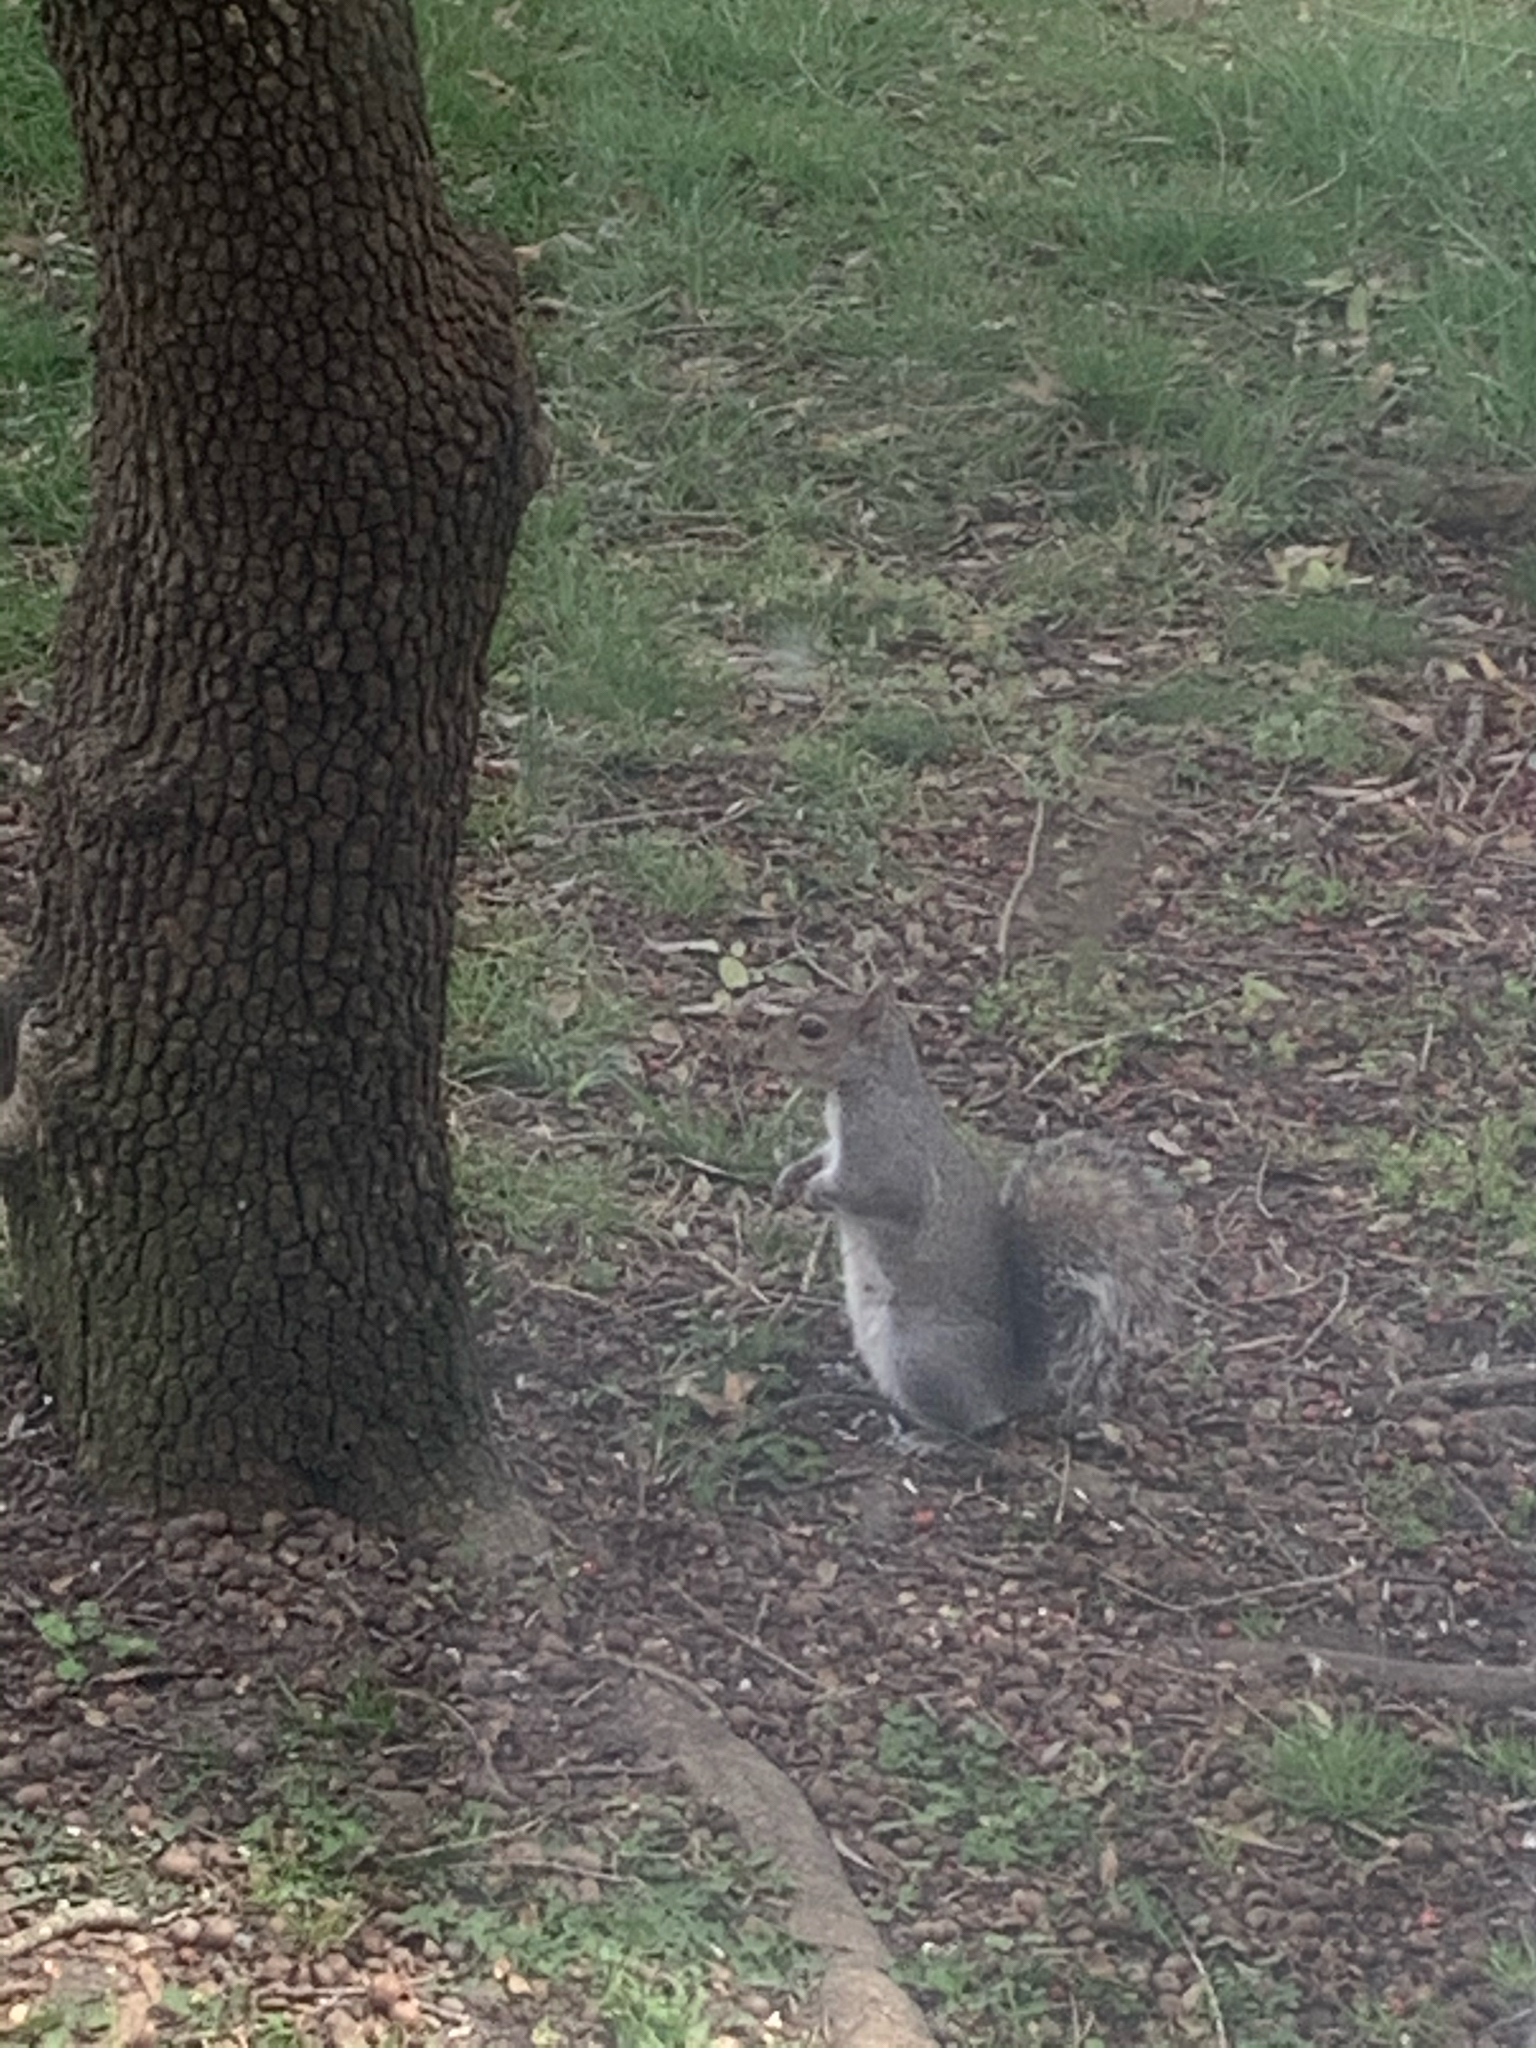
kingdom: Animalia
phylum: Chordata
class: Mammalia
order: Rodentia
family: Sciuridae
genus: Sciurus
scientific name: Sciurus carolinensis
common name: Eastern gray squirrel
